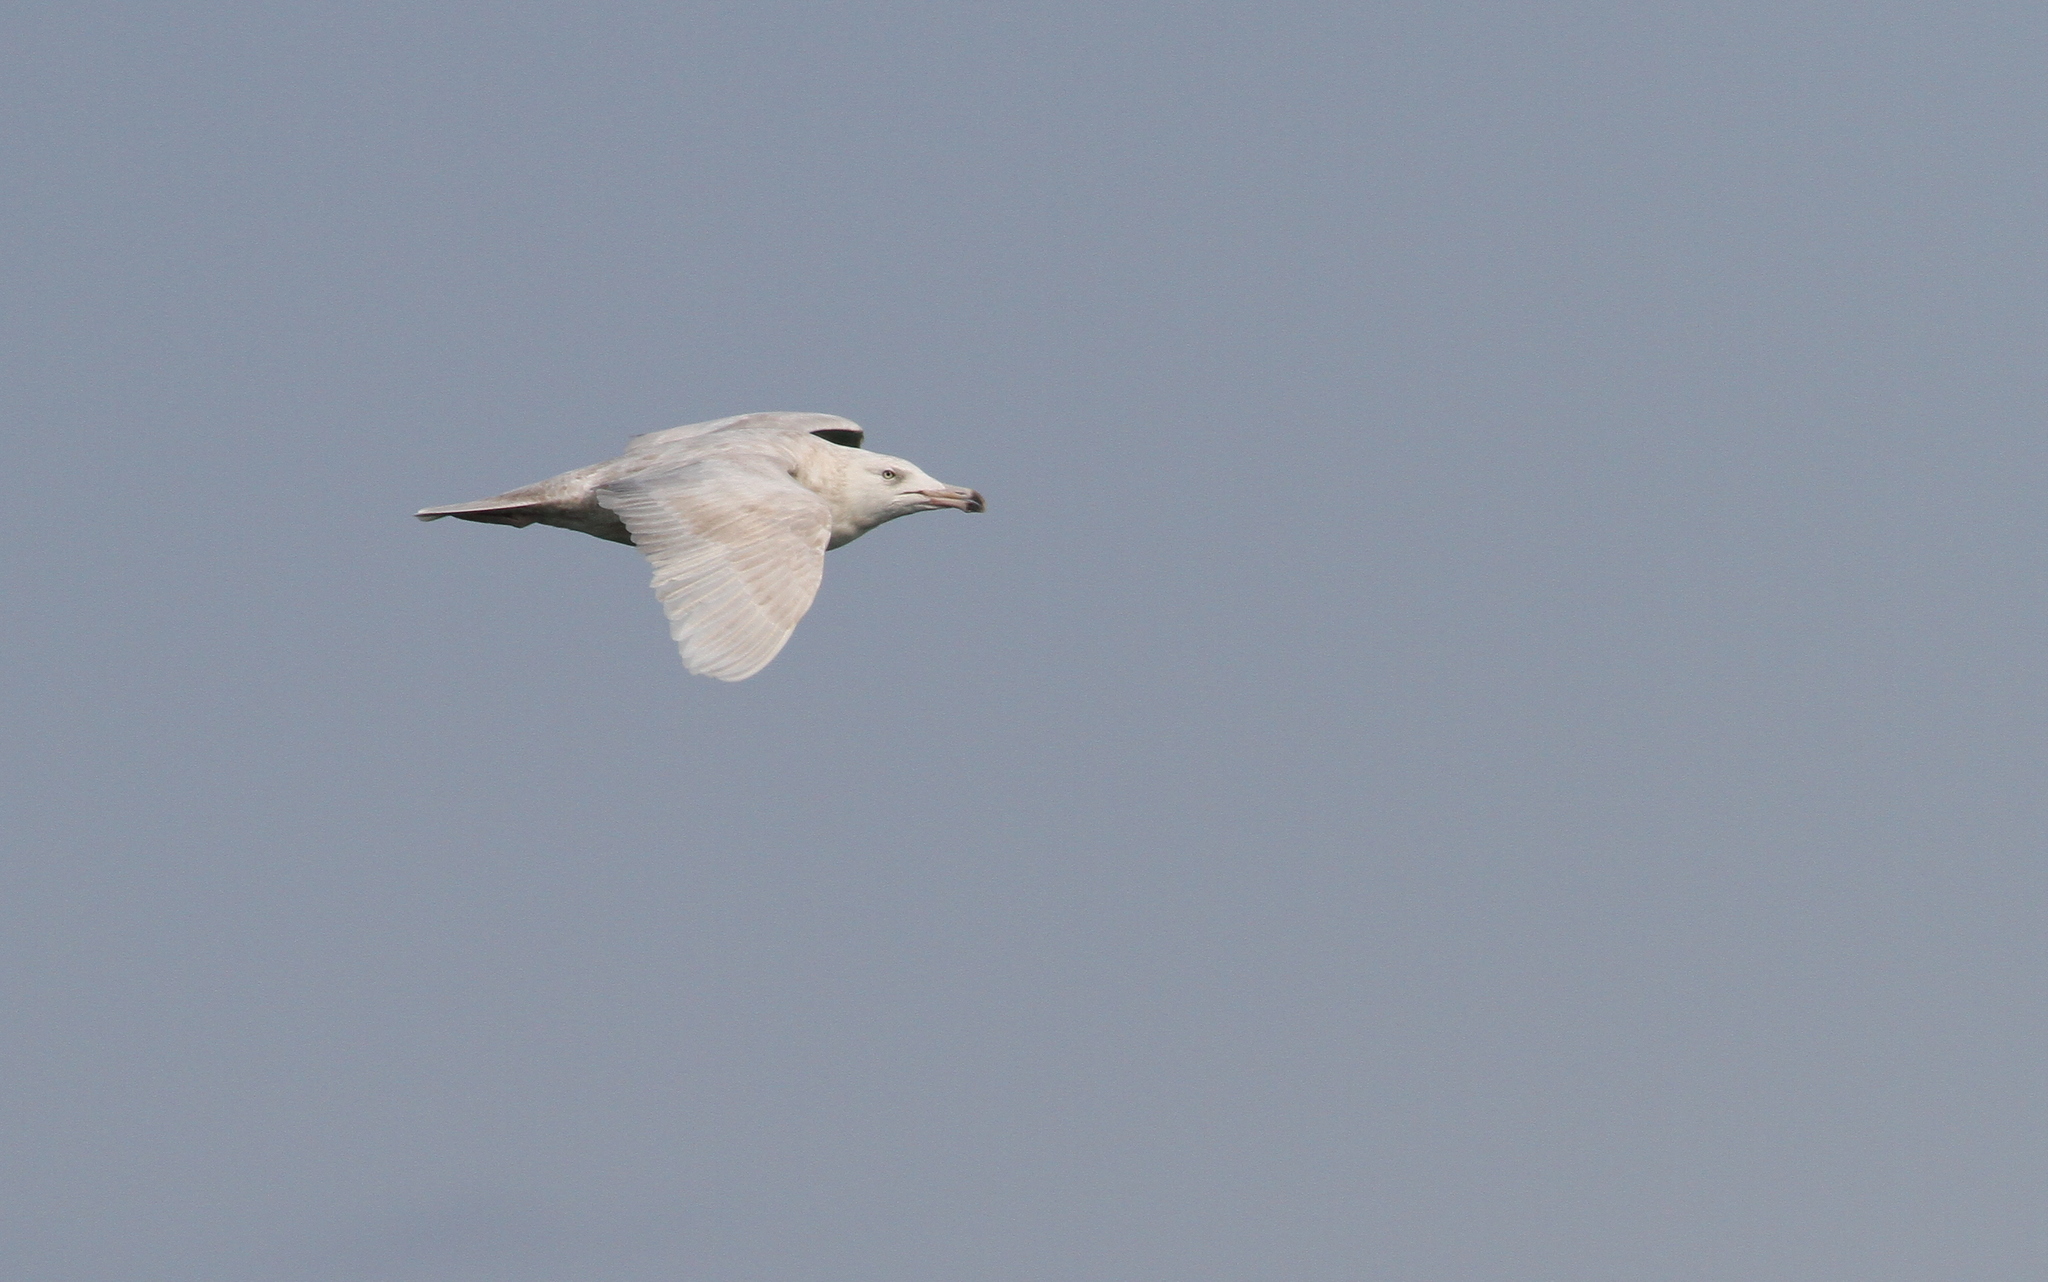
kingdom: Animalia
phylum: Chordata
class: Aves
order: Charadriiformes
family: Laridae
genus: Larus
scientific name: Larus hyperboreus
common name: Glaucous gull
